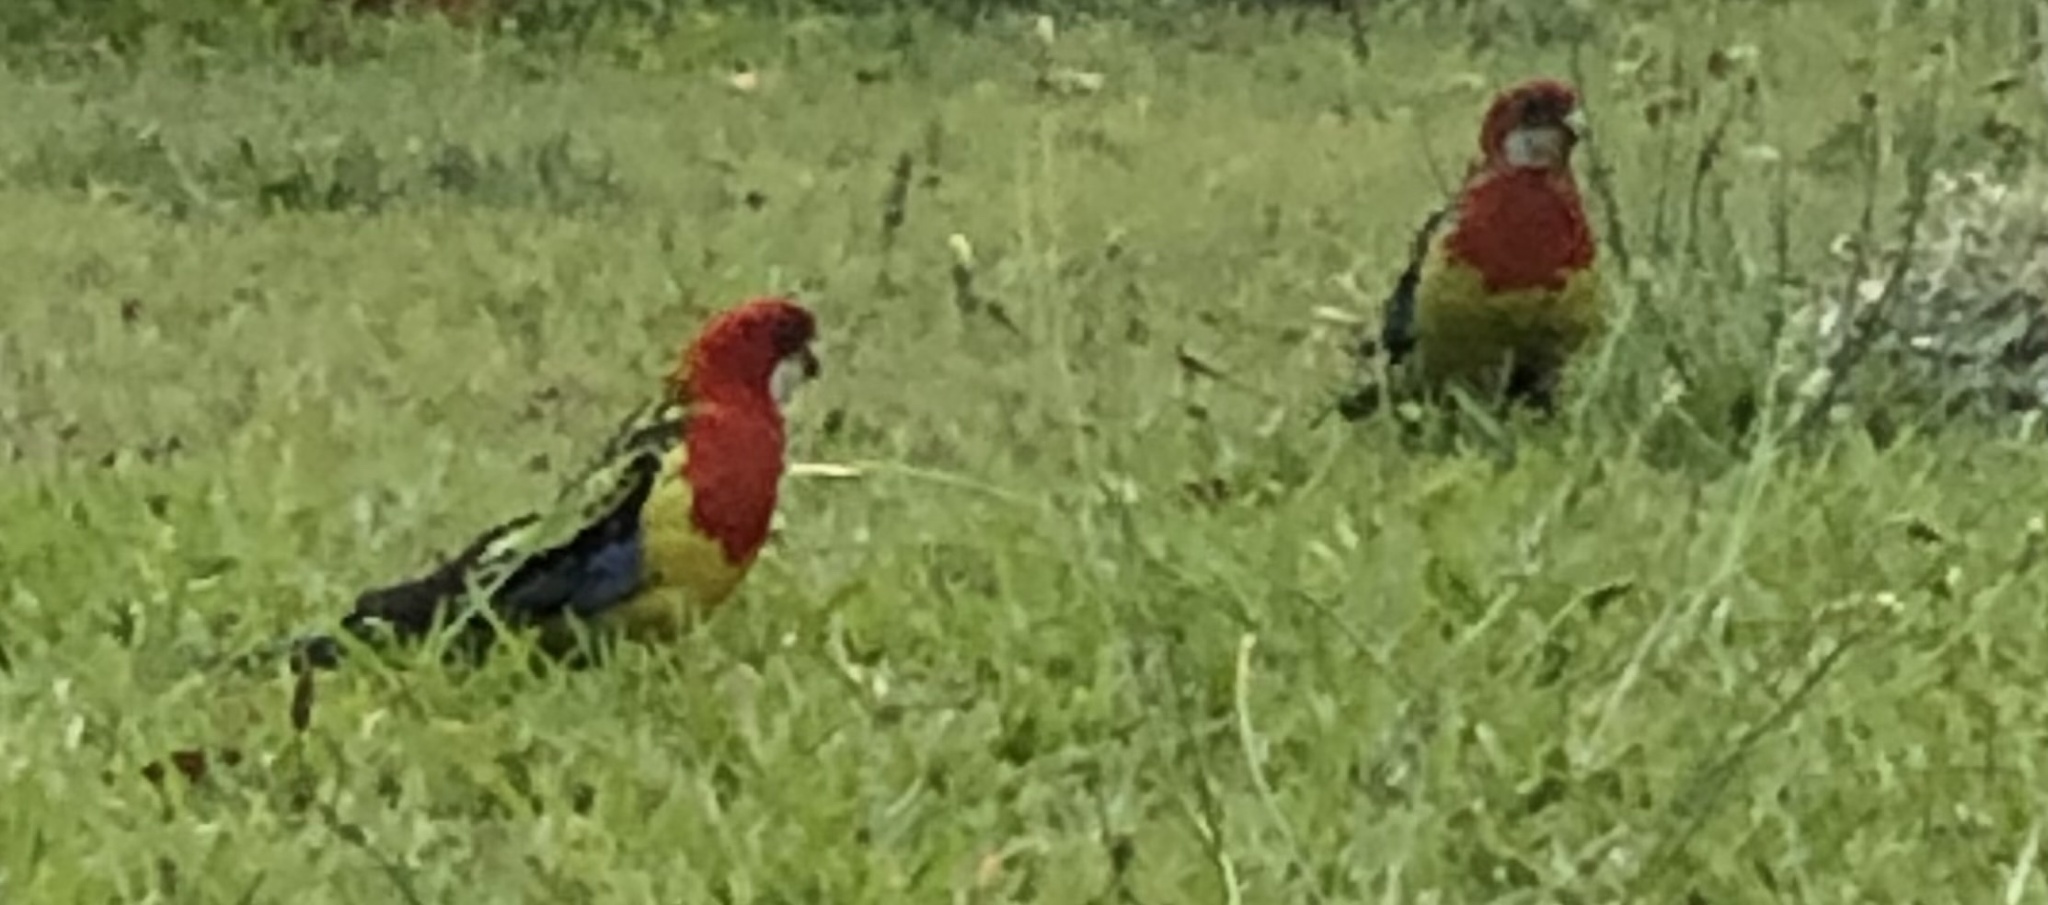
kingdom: Animalia
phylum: Chordata
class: Aves
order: Psittaciformes
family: Psittacidae
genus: Platycercus
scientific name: Platycercus eximius
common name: Eastern rosella
